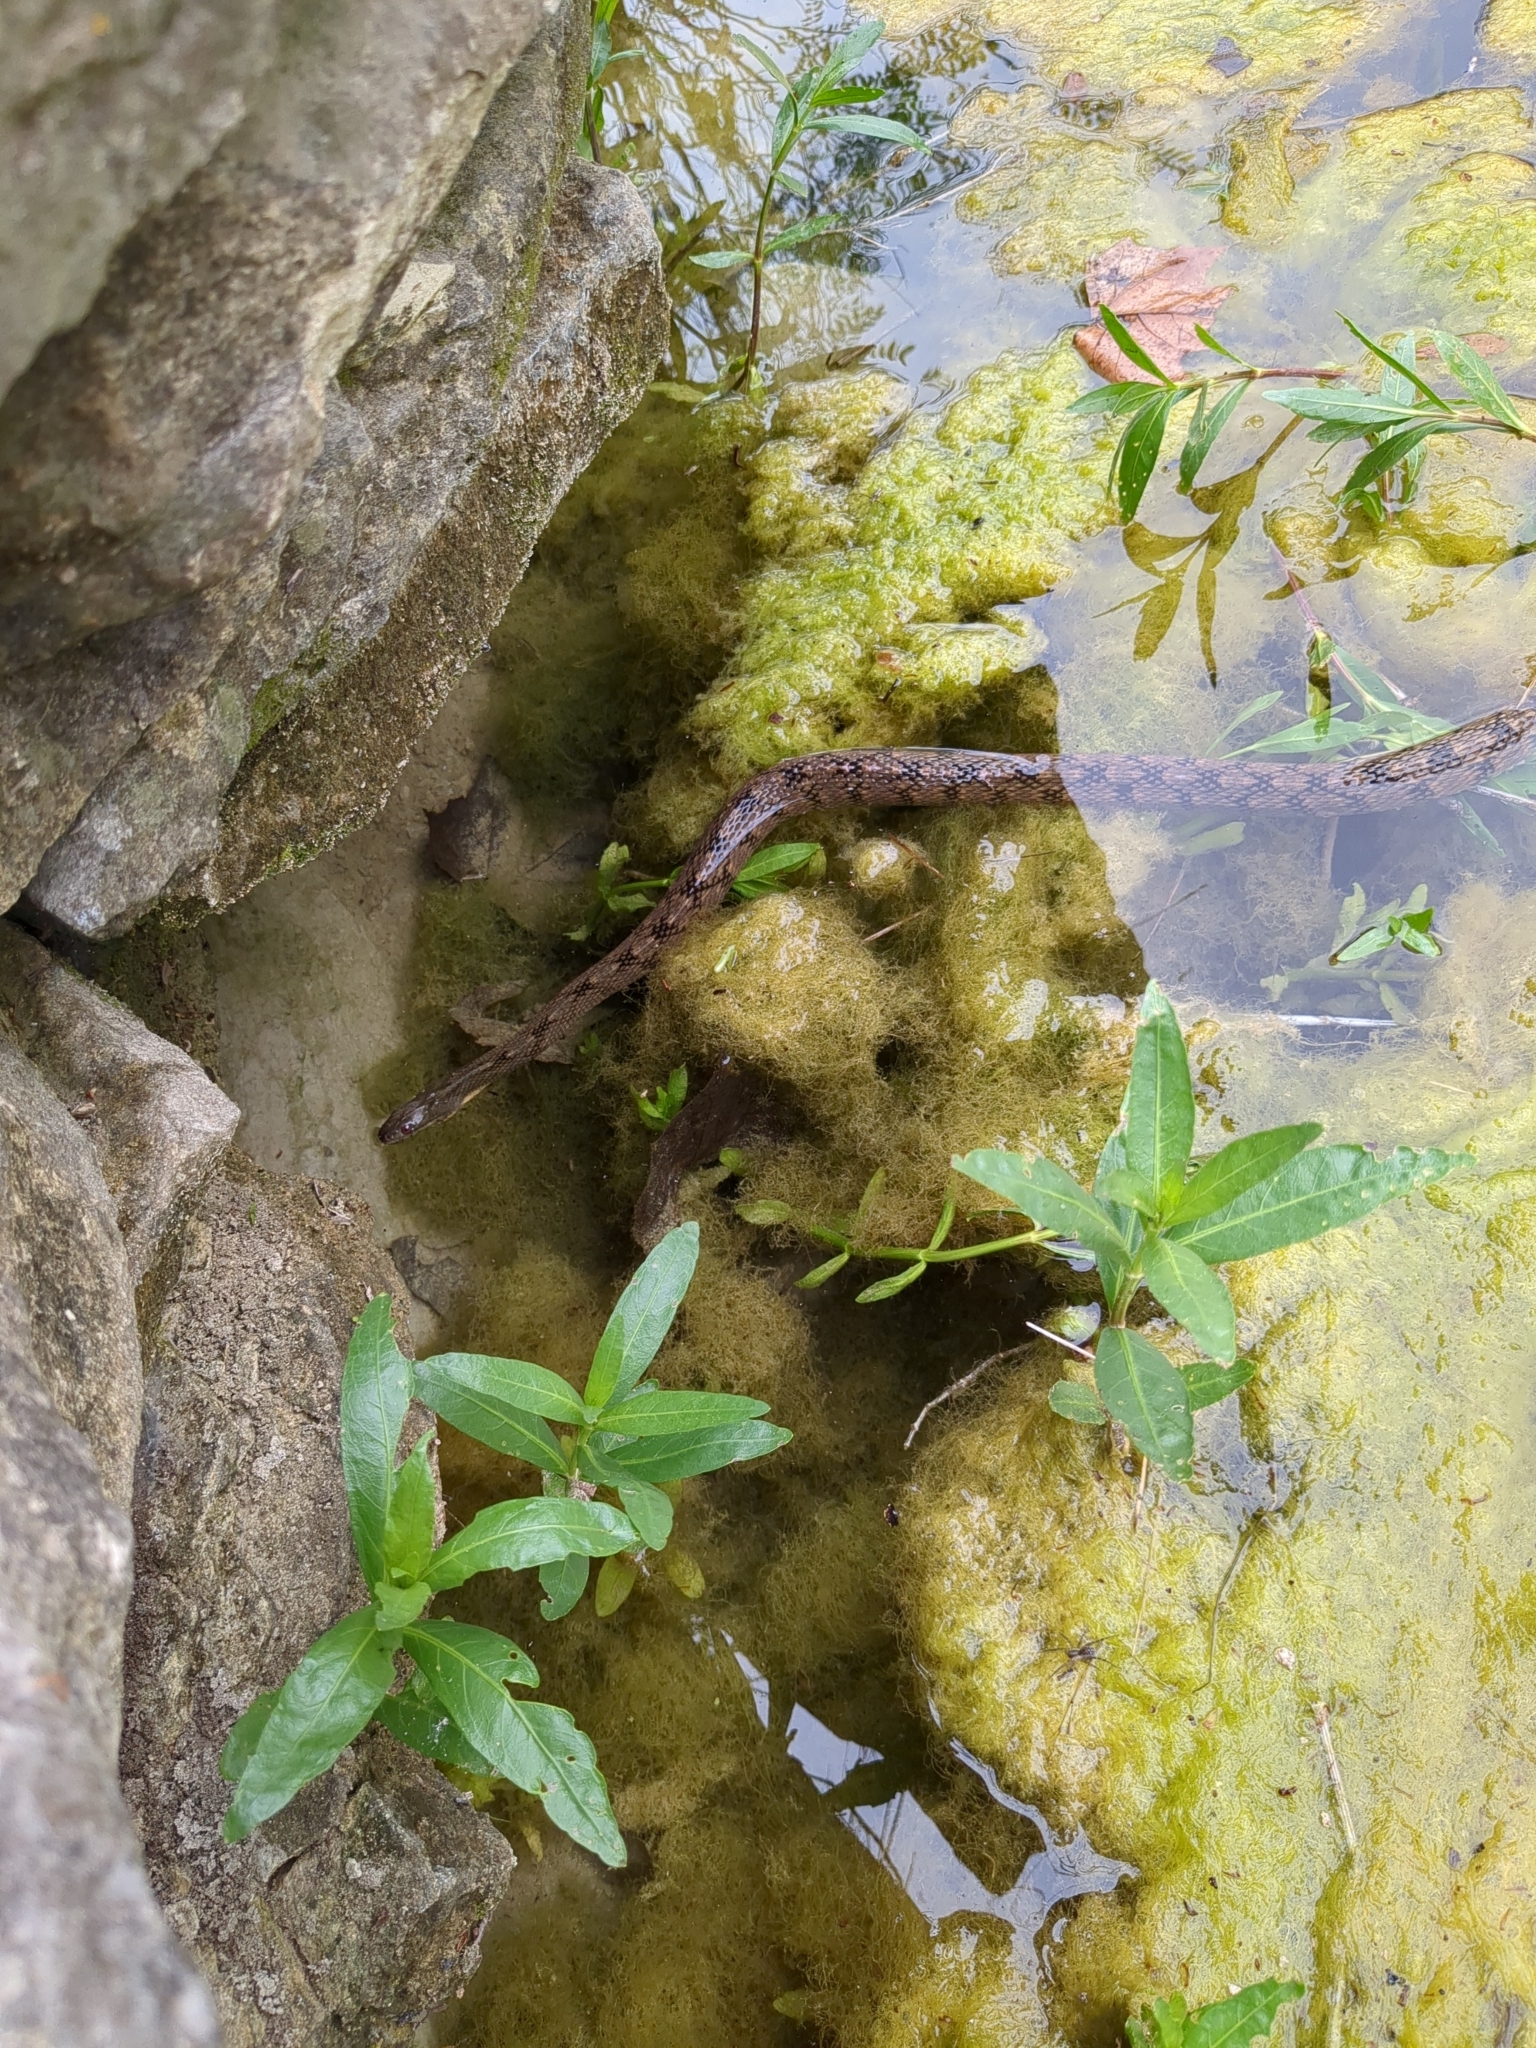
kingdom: Animalia
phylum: Chordata
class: Squamata
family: Colubridae
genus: Nerodia
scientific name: Nerodia rhombifer
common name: Diamondback water snake
